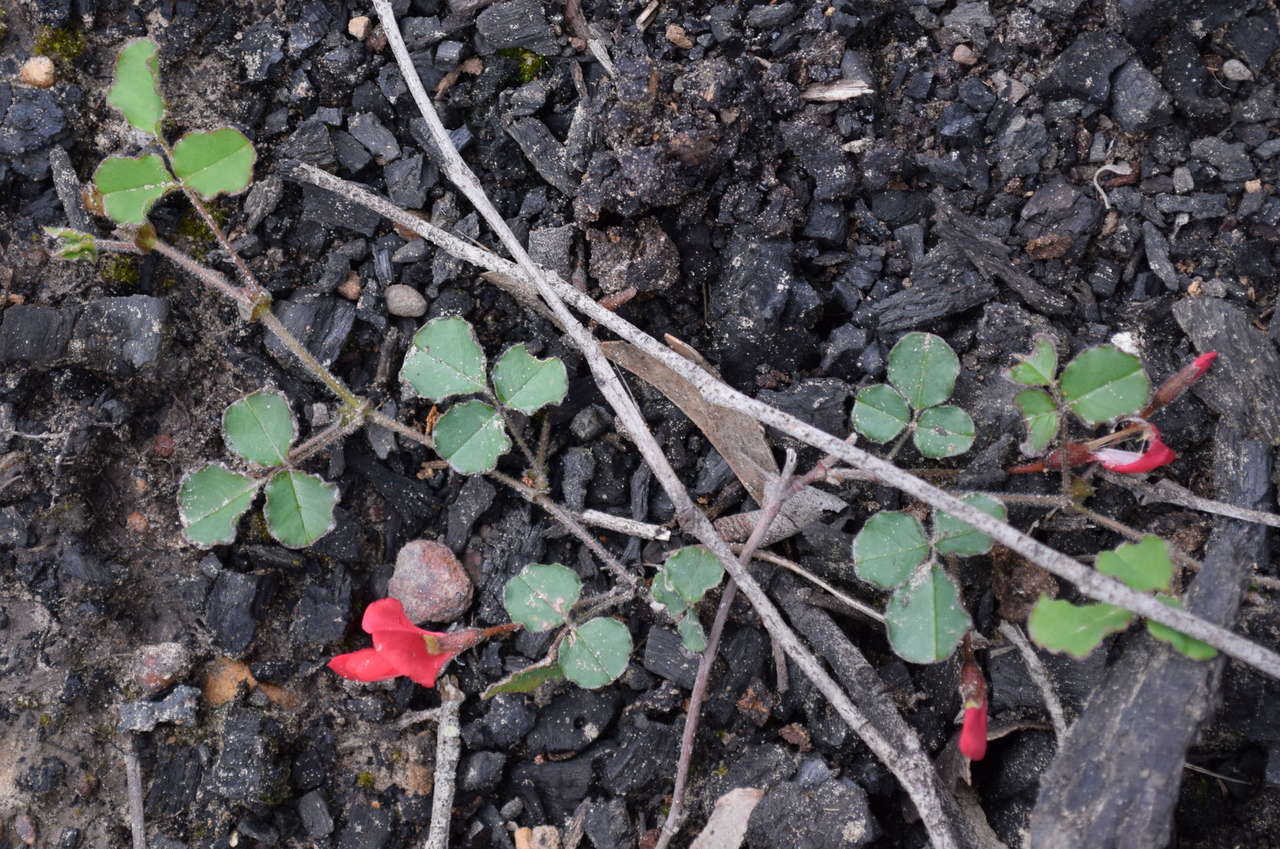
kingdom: Plantae
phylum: Tracheophyta
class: Magnoliopsida
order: Fabales
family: Fabaceae
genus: Kennedia
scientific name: Kennedia prostrata
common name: Running-postman
